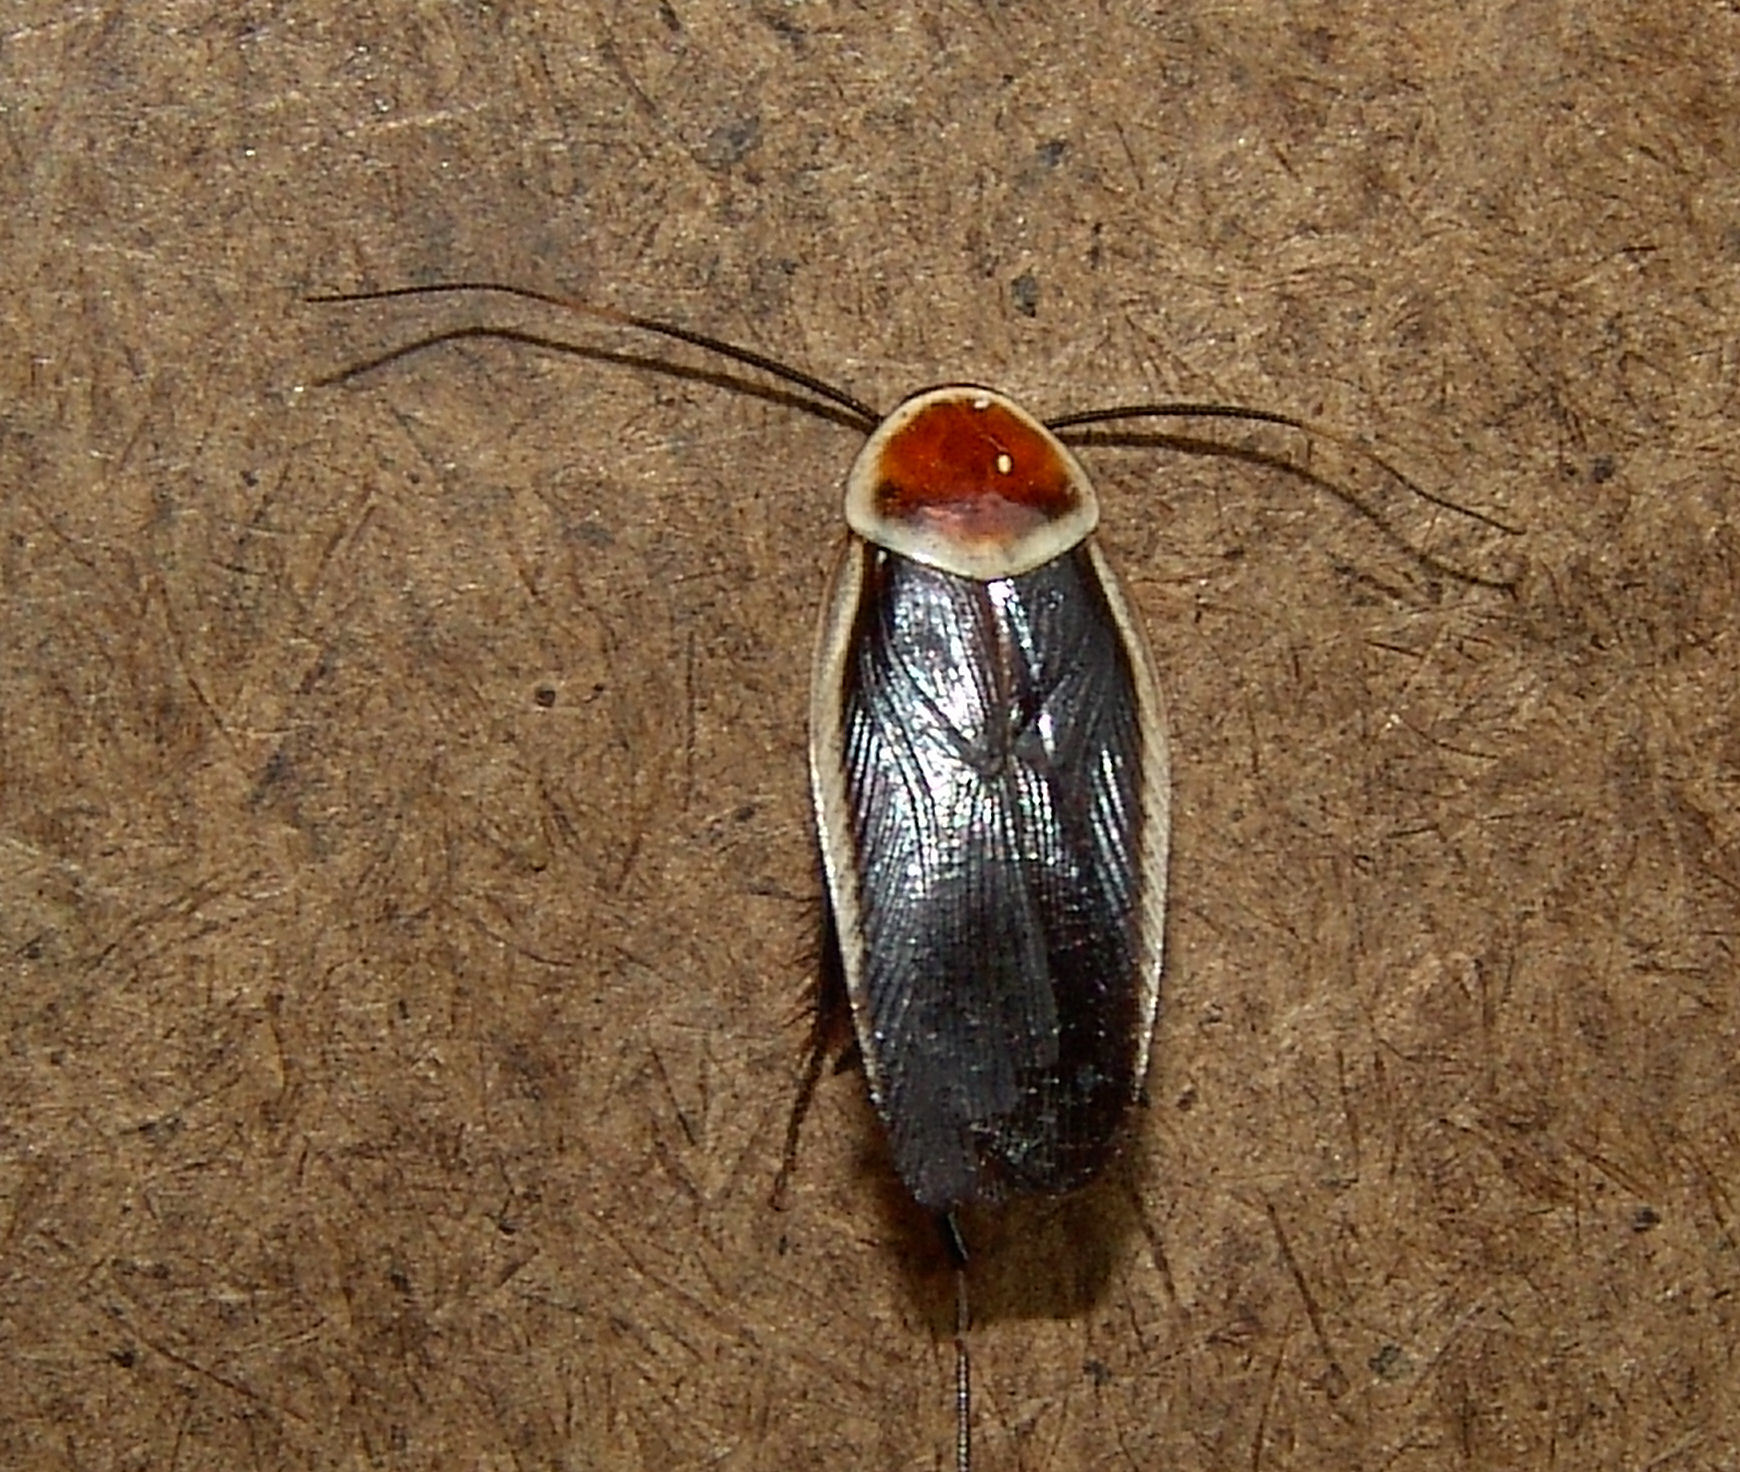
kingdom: Animalia
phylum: Arthropoda
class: Insecta
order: Blattodea
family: Ectobiidae
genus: Pseudomops
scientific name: Pseudomops septentrionalis
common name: Pale-bordered field cockroach
